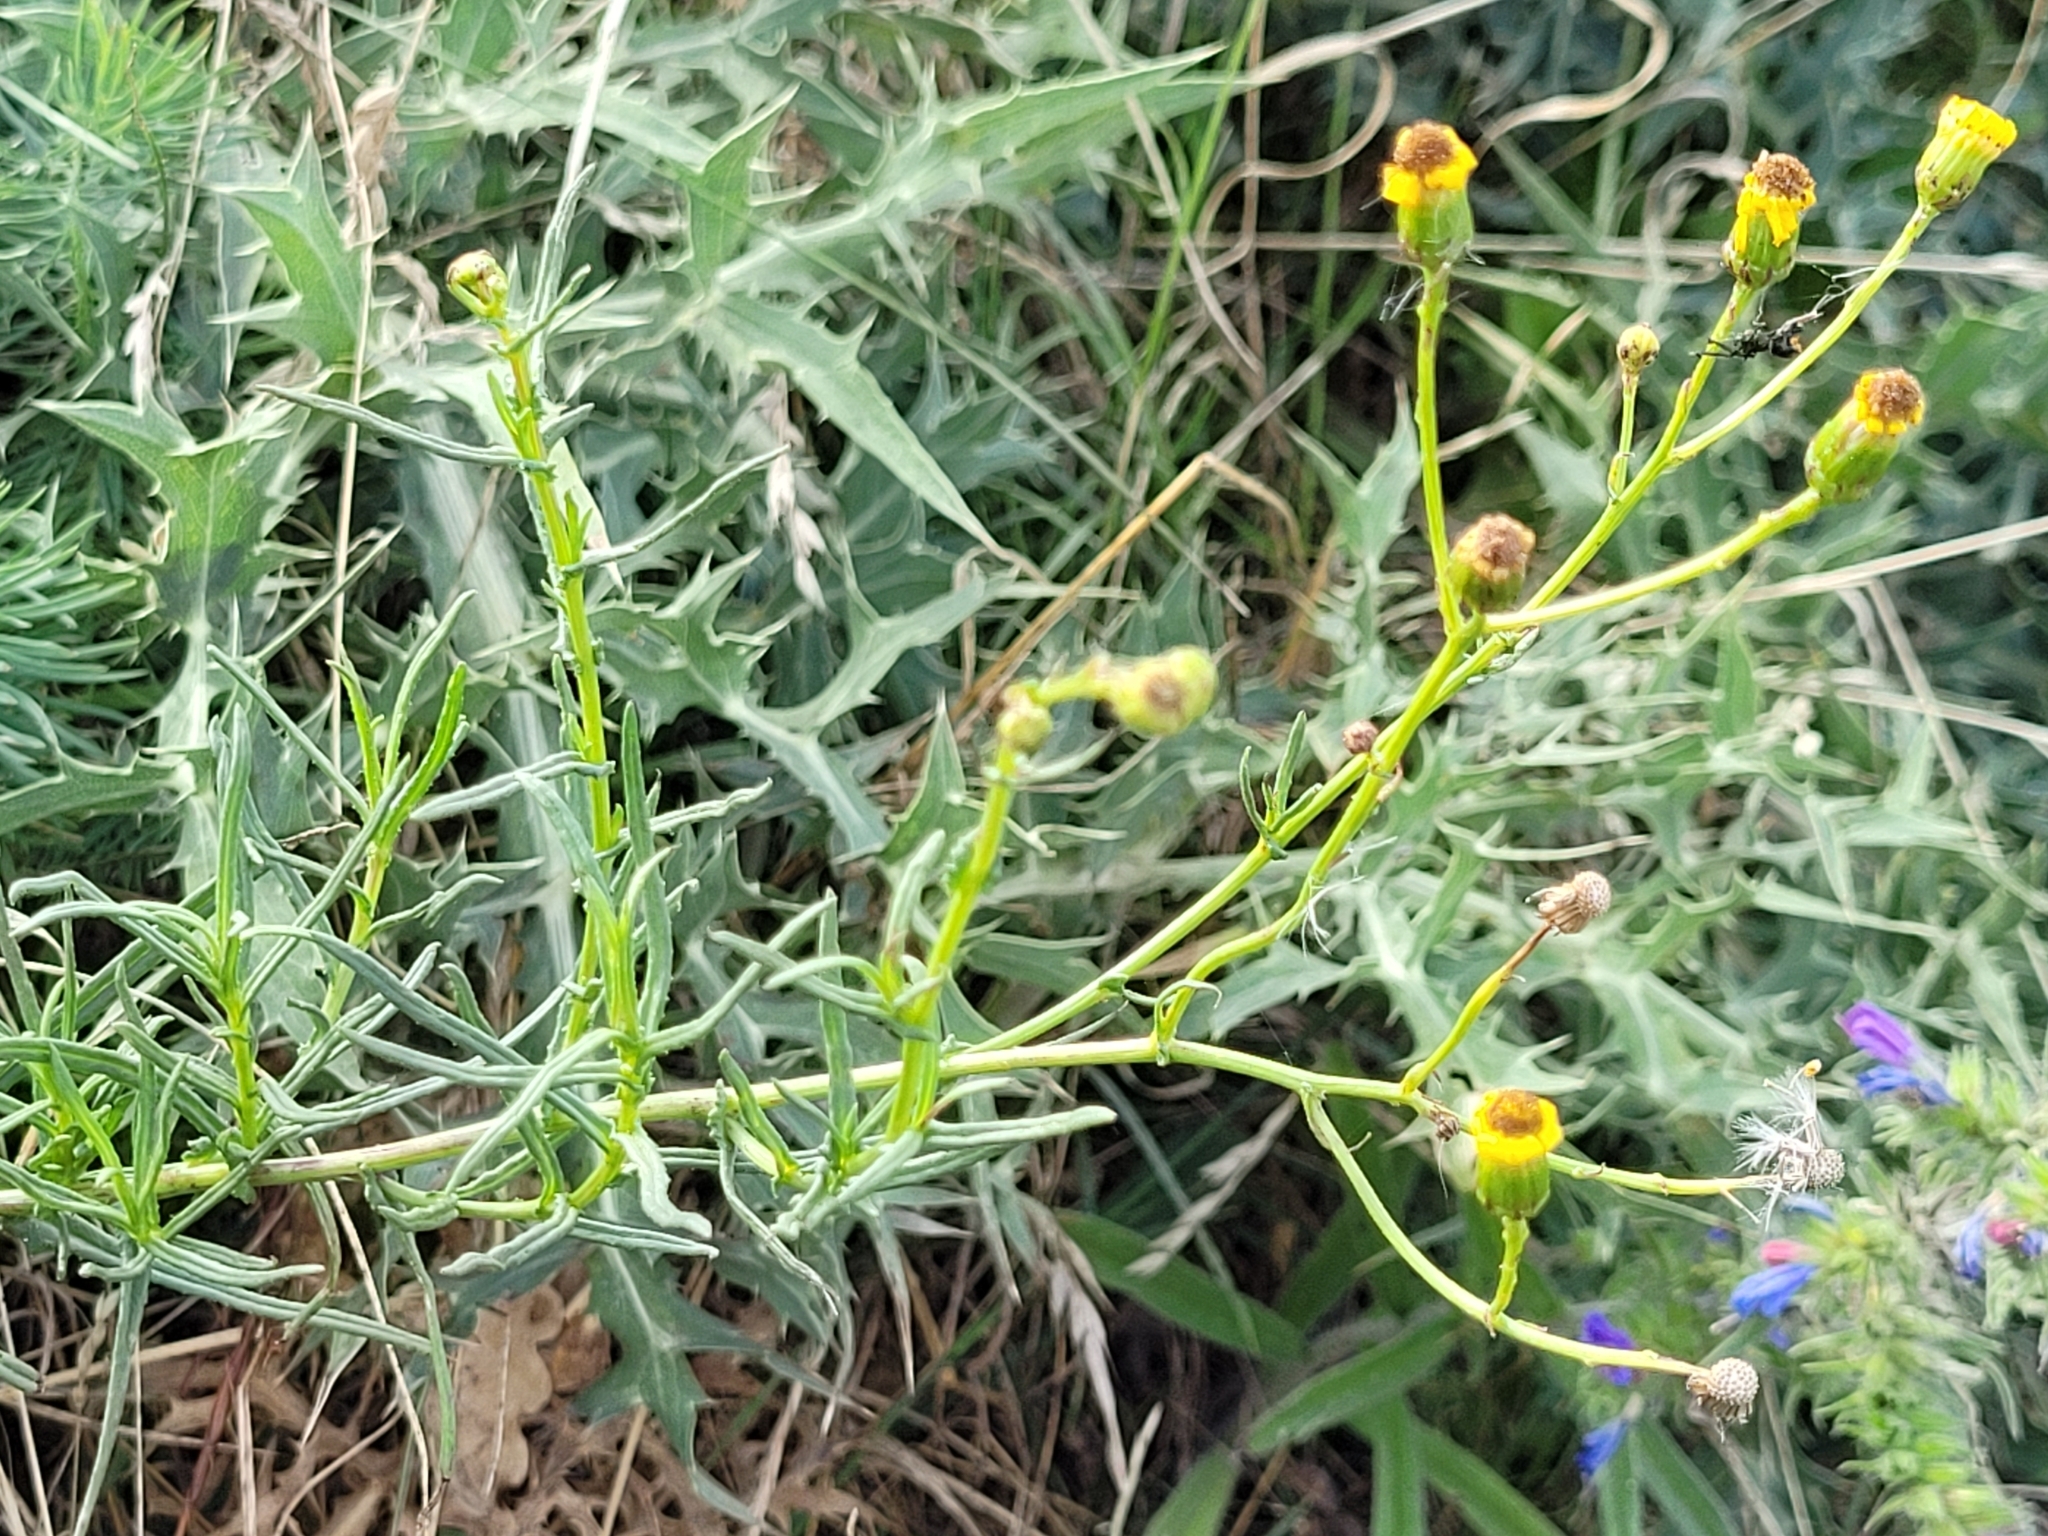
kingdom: Plantae
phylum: Tracheophyta
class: Magnoliopsida
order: Asterales
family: Asteraceae
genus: Senecio
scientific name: Senecio inaequidens
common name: Narrow-leaved ragwort
